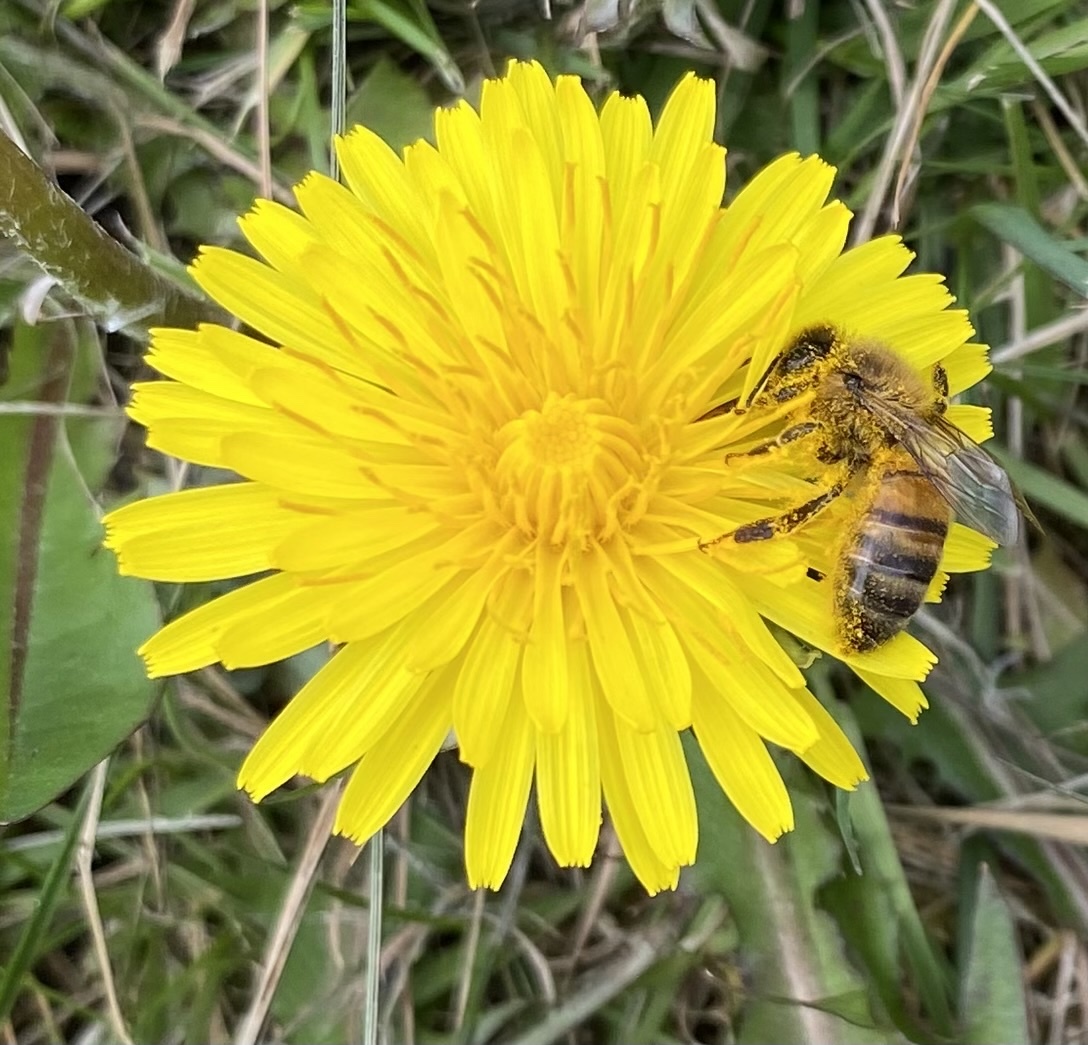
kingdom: Animalia
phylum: Arthropoda
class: Insecta
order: Hymenoptera
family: Apidae
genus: Apis
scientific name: Apis mellifera
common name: Honey bee
